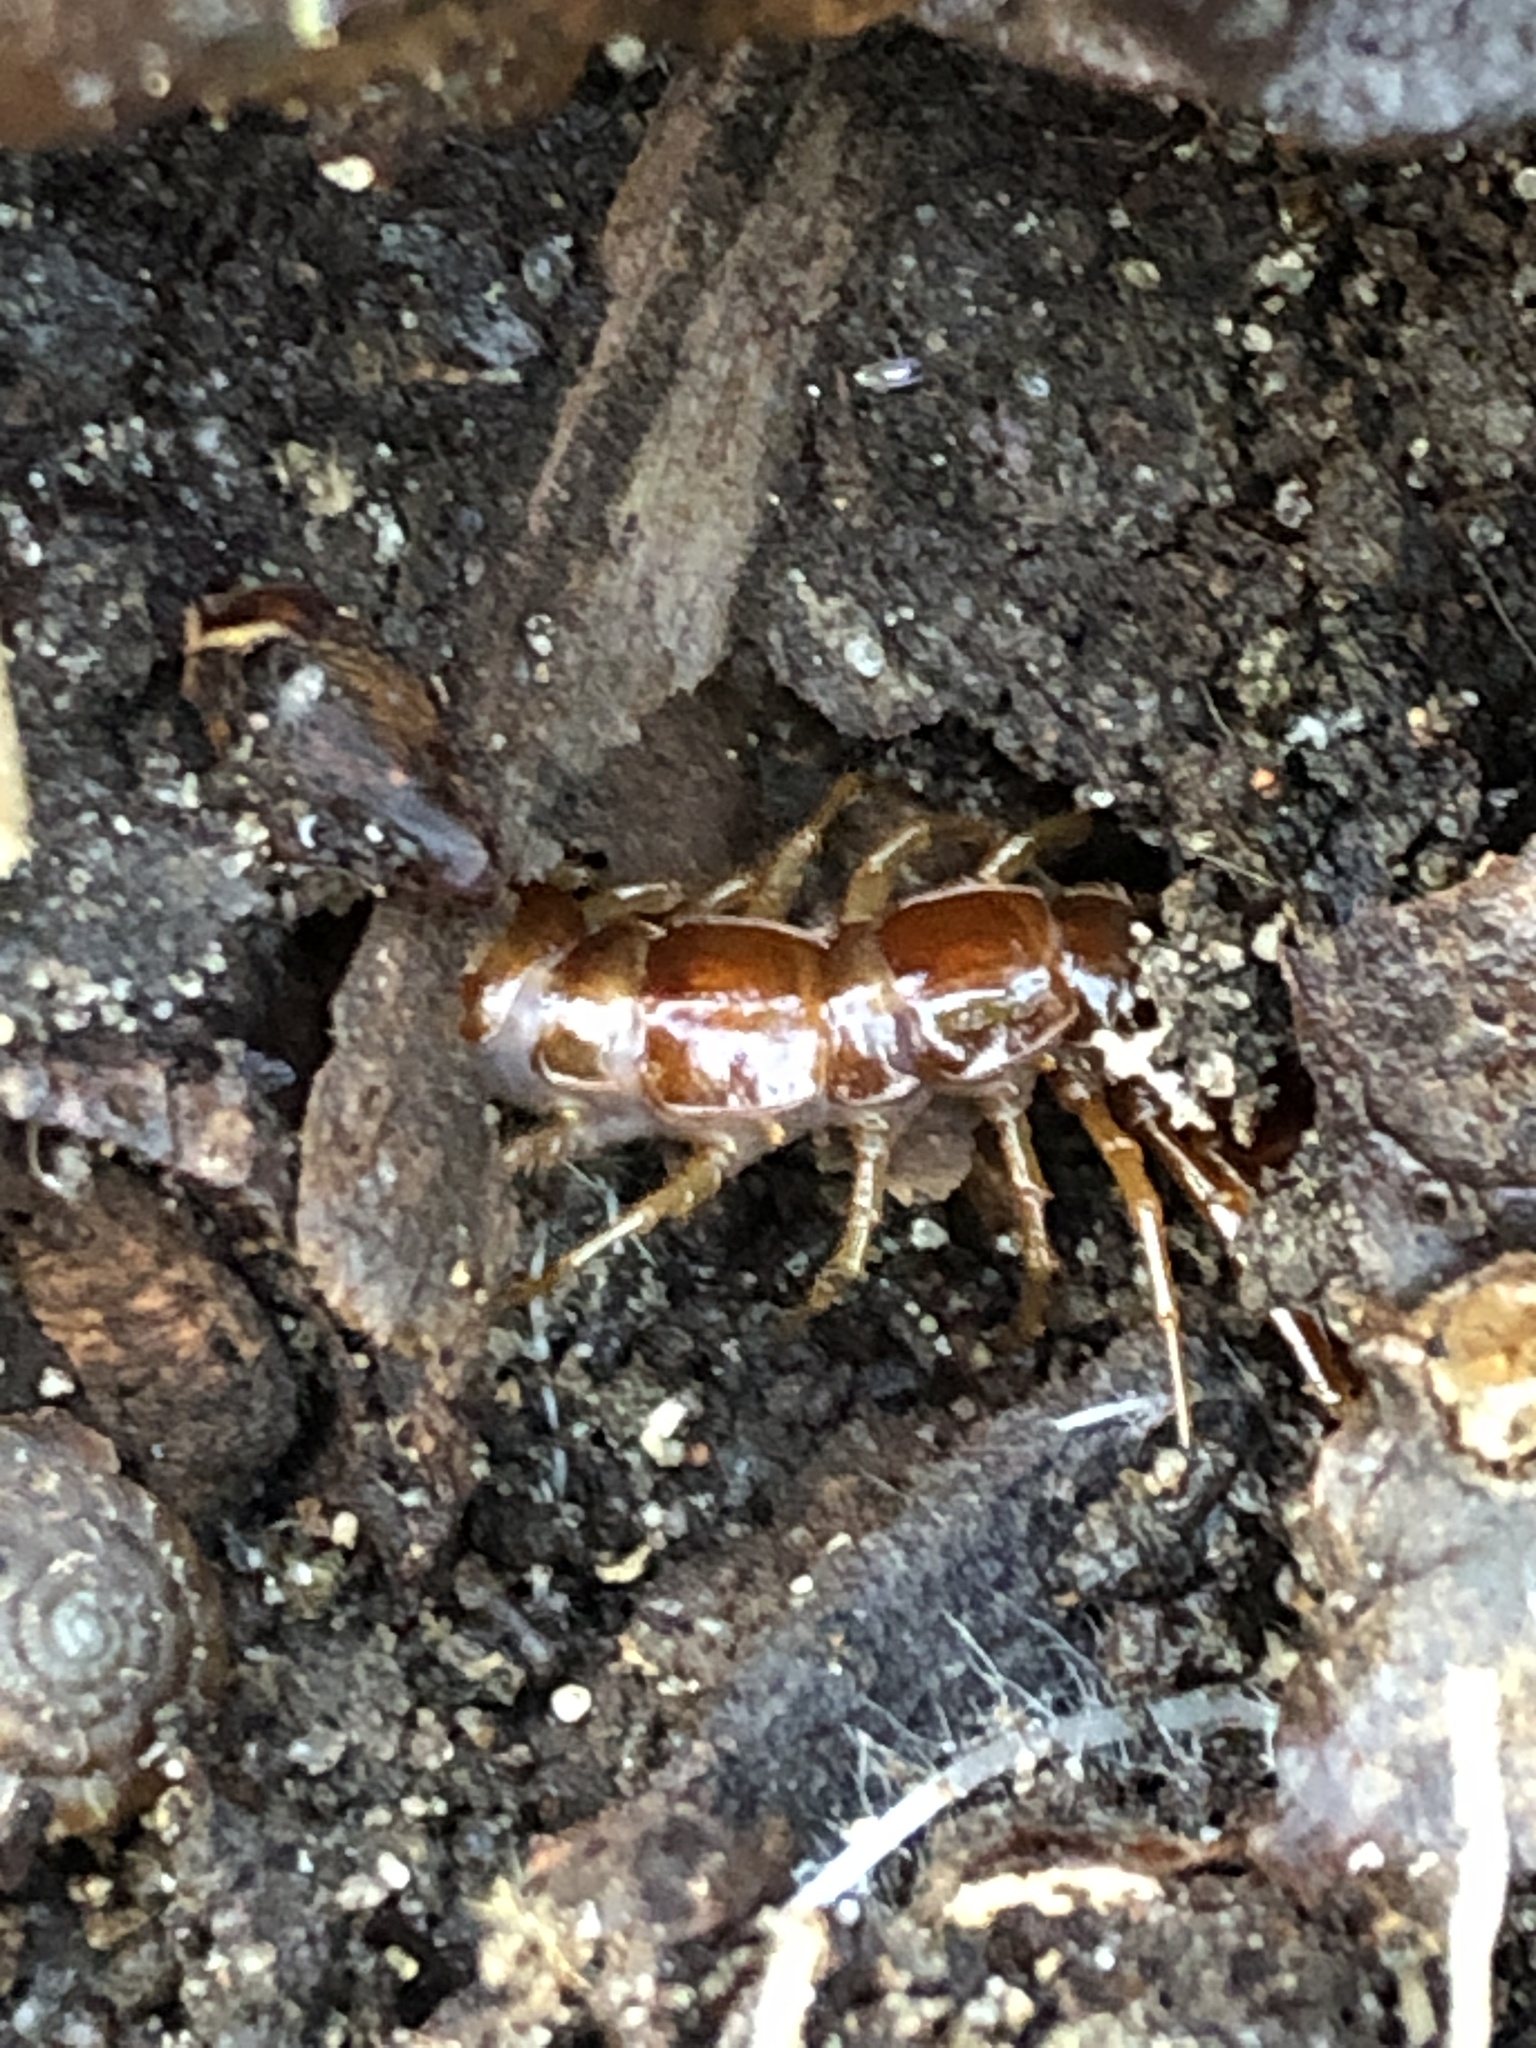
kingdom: Animalia
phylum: Arthropoda
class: Chilopoda
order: Lithobiomorpha
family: Lithobiidae
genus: Lithobius
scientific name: Lithobius forficatus
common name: Centipede
